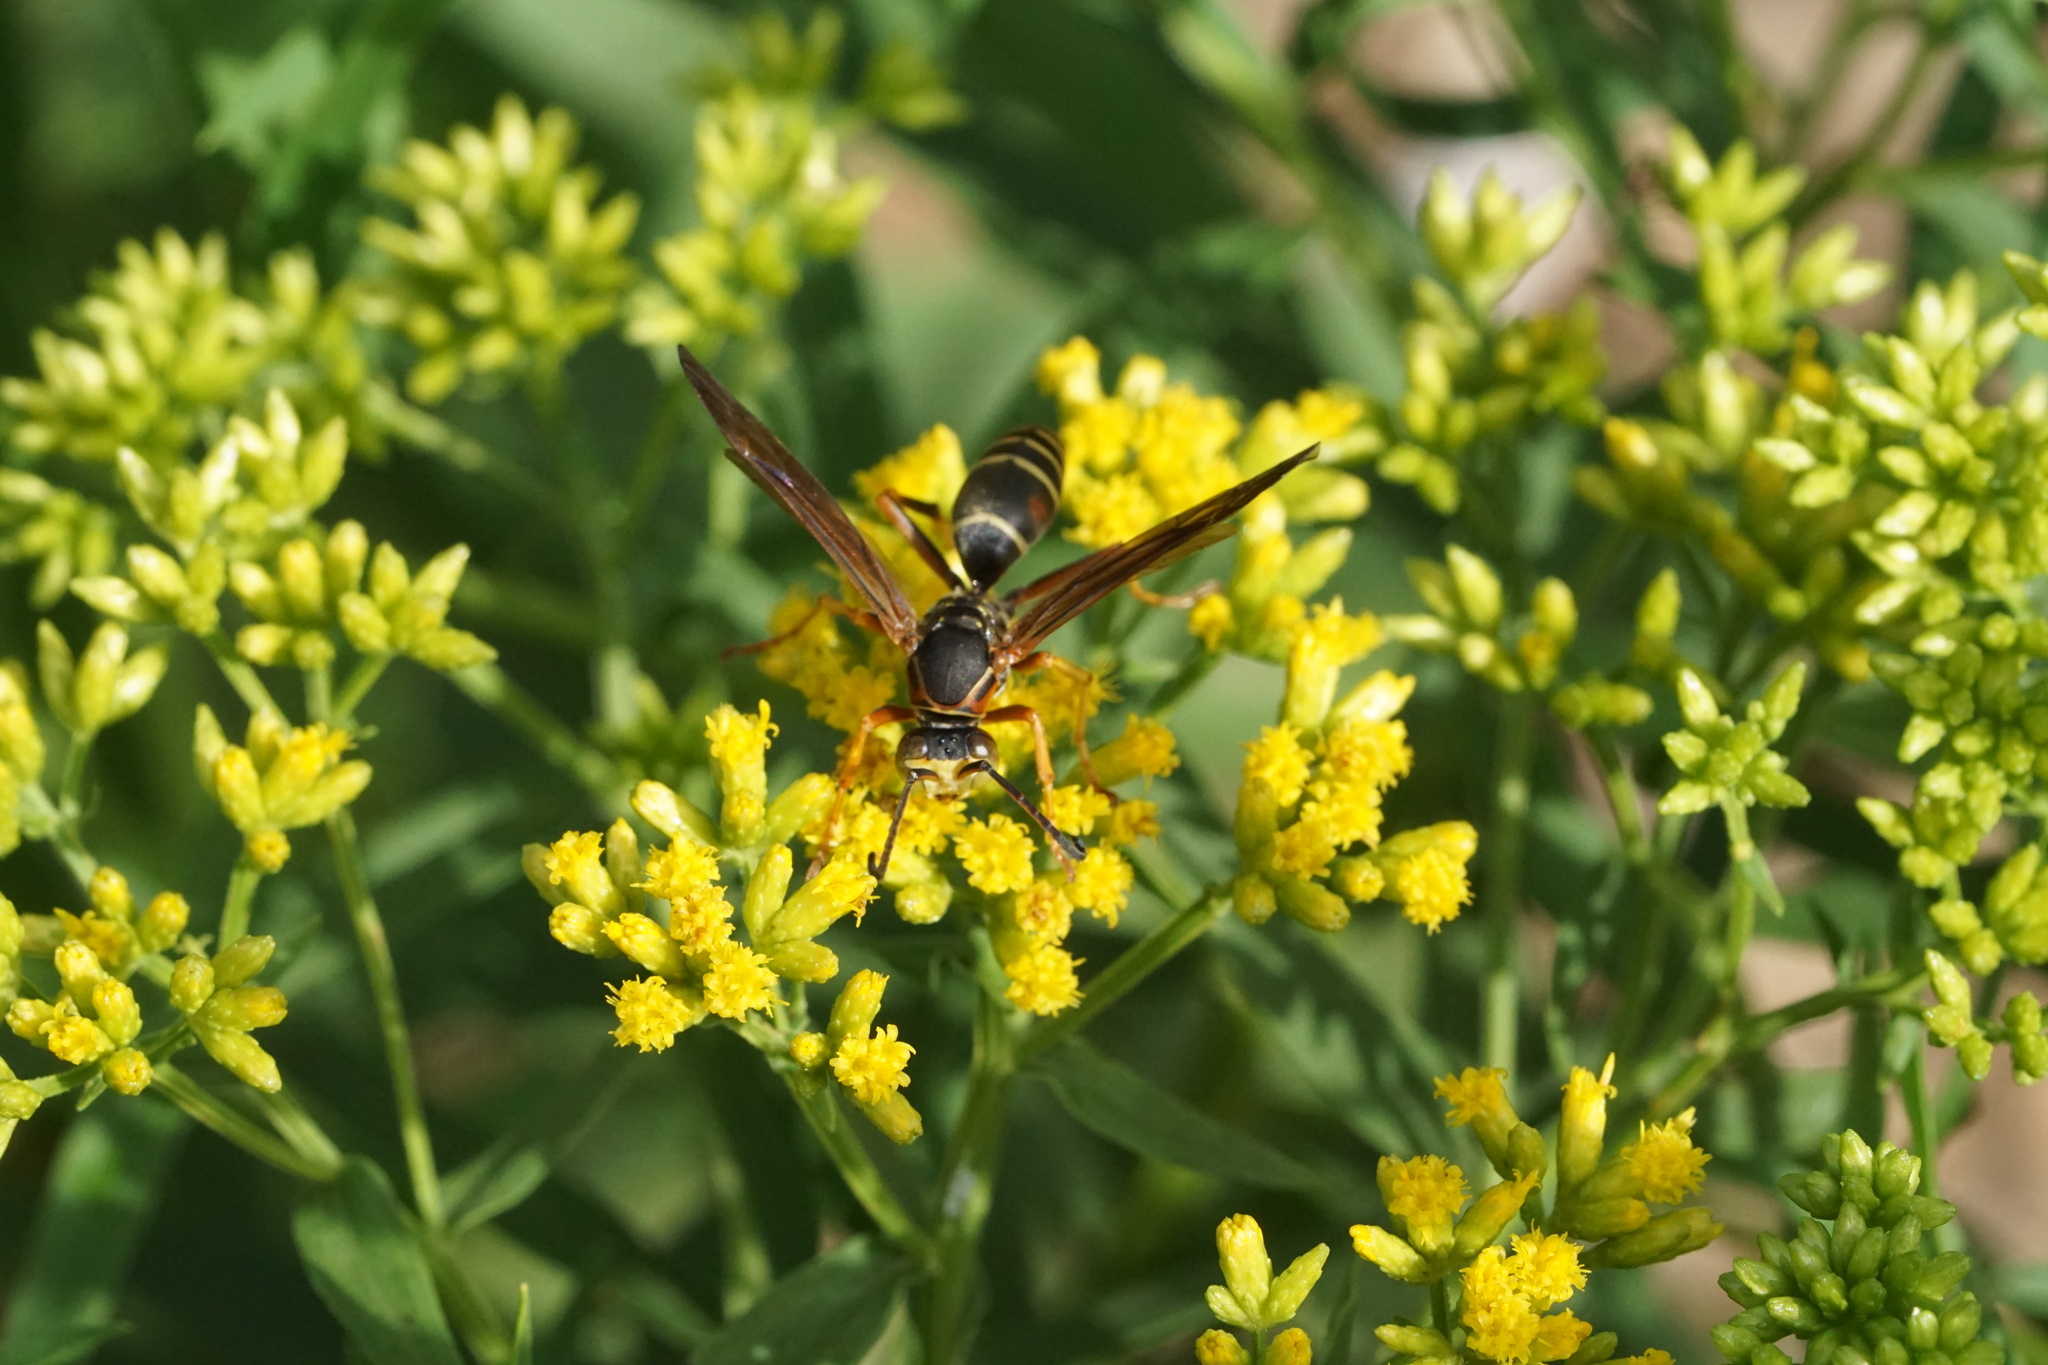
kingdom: Animalia
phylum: Arthropoda
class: Insecta
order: Hymenoptera
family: Eumenidae
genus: Polistes
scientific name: Polistes fuscatus
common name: Dark paper wasp
